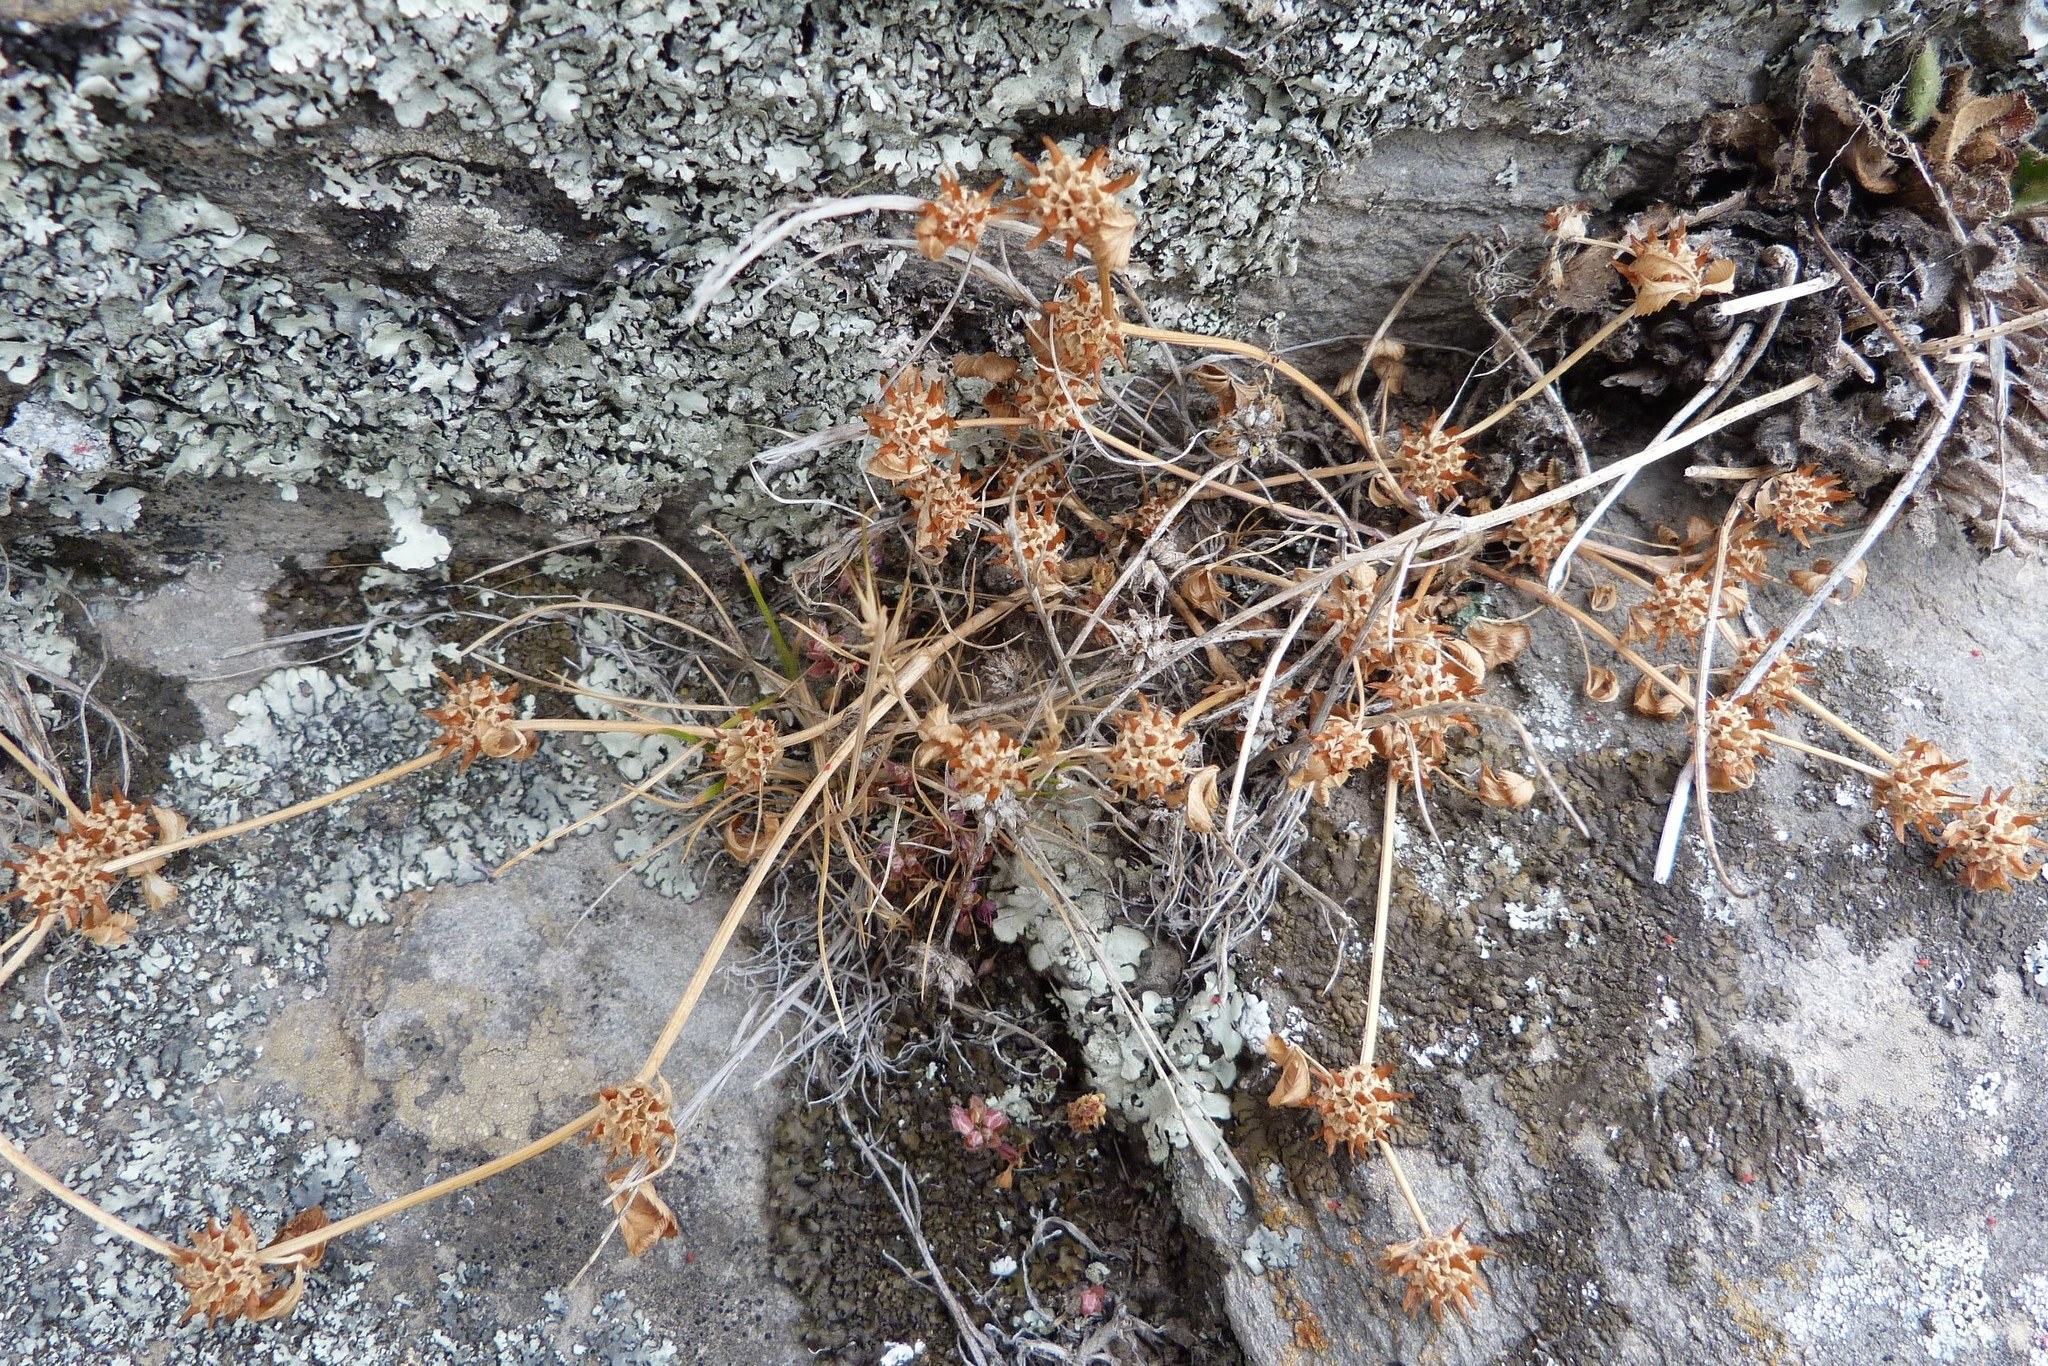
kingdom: Plantae
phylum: Tracheophyta
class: Magnoliopsida
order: Fabales
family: Fabaceae
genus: Trifolium
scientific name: Trifolium glomeratum
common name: Clustered clover
